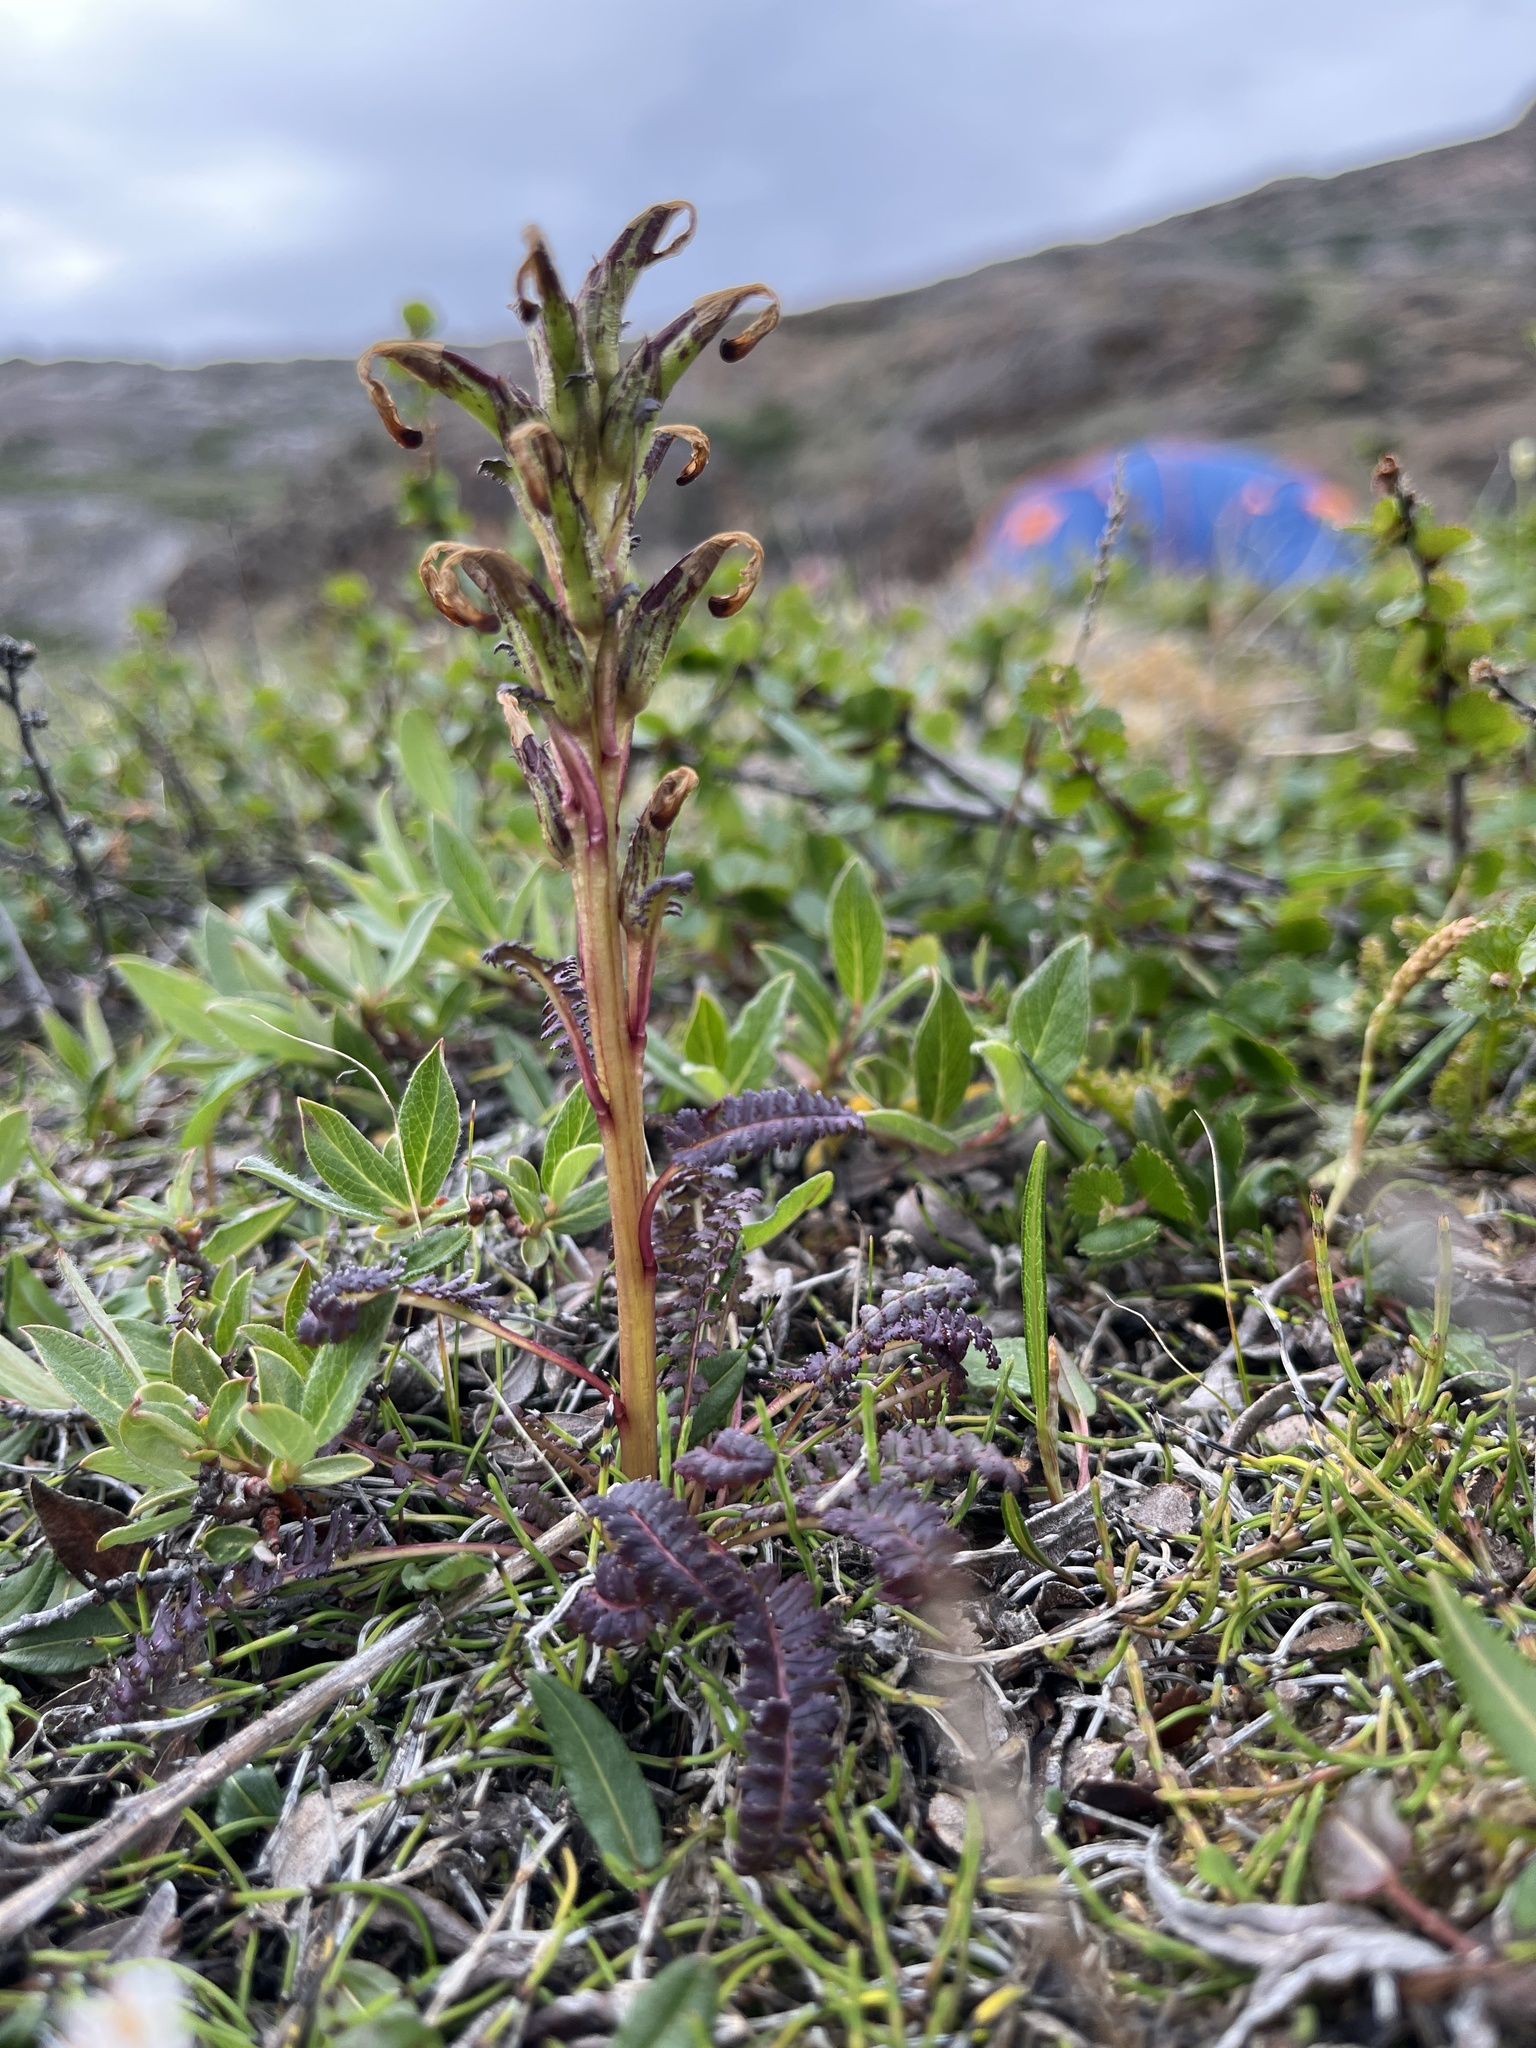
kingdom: Plantae
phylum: Tracheophyta
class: Magnoliopsida
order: Lamiales
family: Orobanchaceae
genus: Pedicularis
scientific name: Pedicularis flammea
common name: Flame-coloured lousewort
